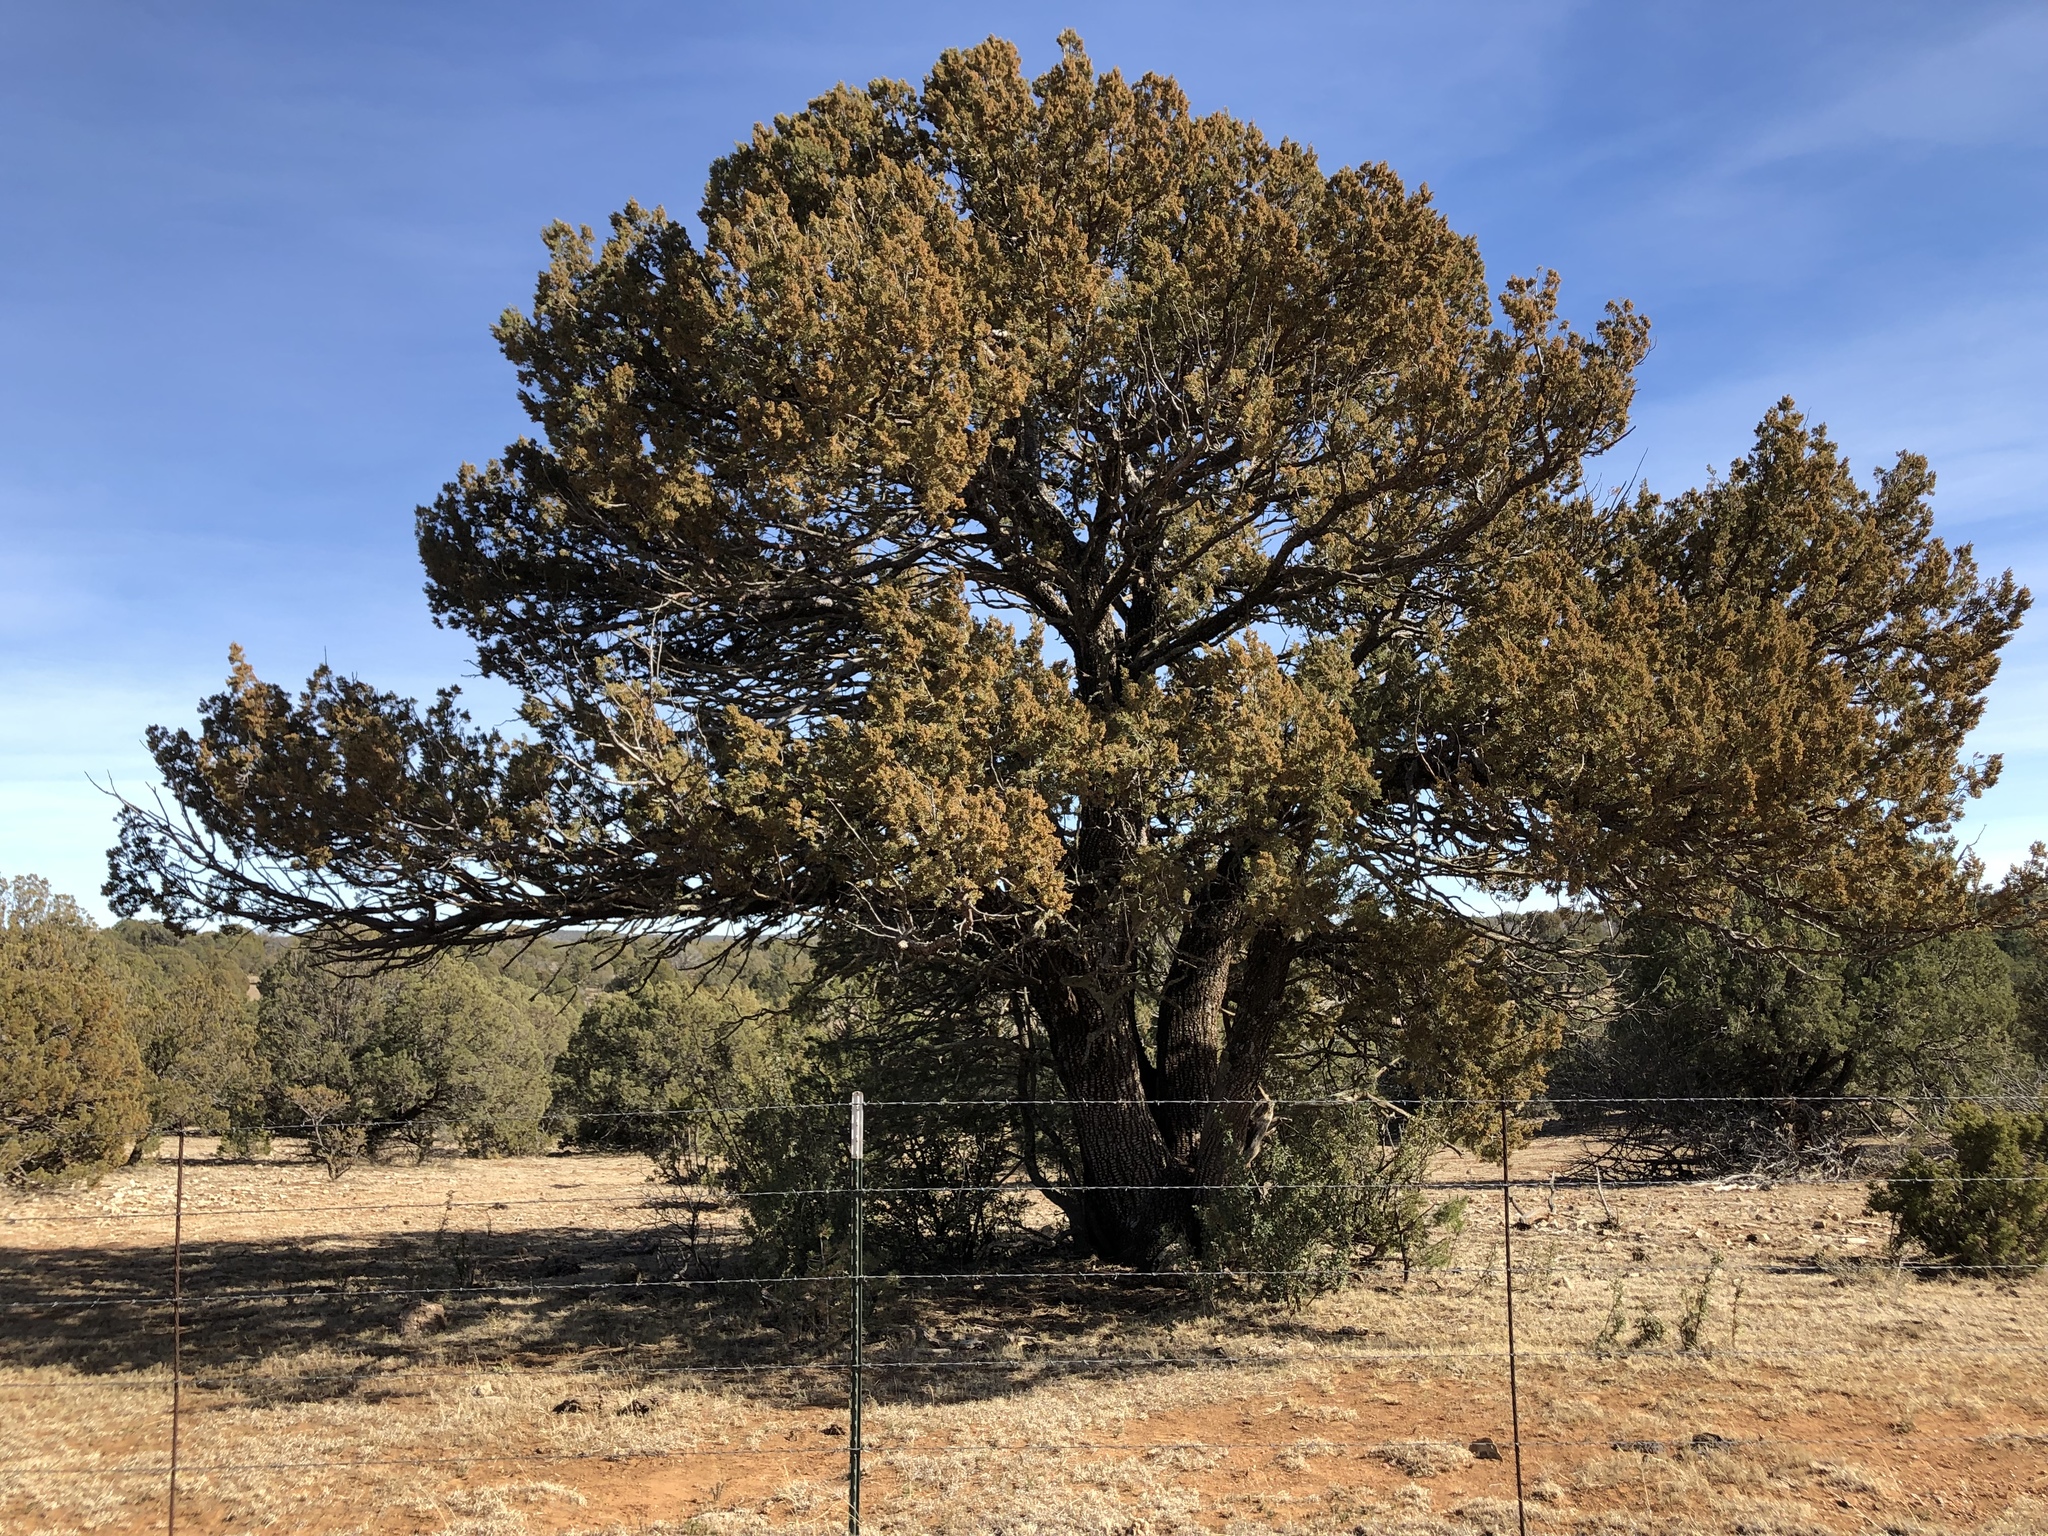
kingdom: Plantae
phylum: Tracheophyta
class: Pinopsida
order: Pinales
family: Cupressaceae
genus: Juniperus
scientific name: Juniperus deppeana
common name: Alligator juniper
